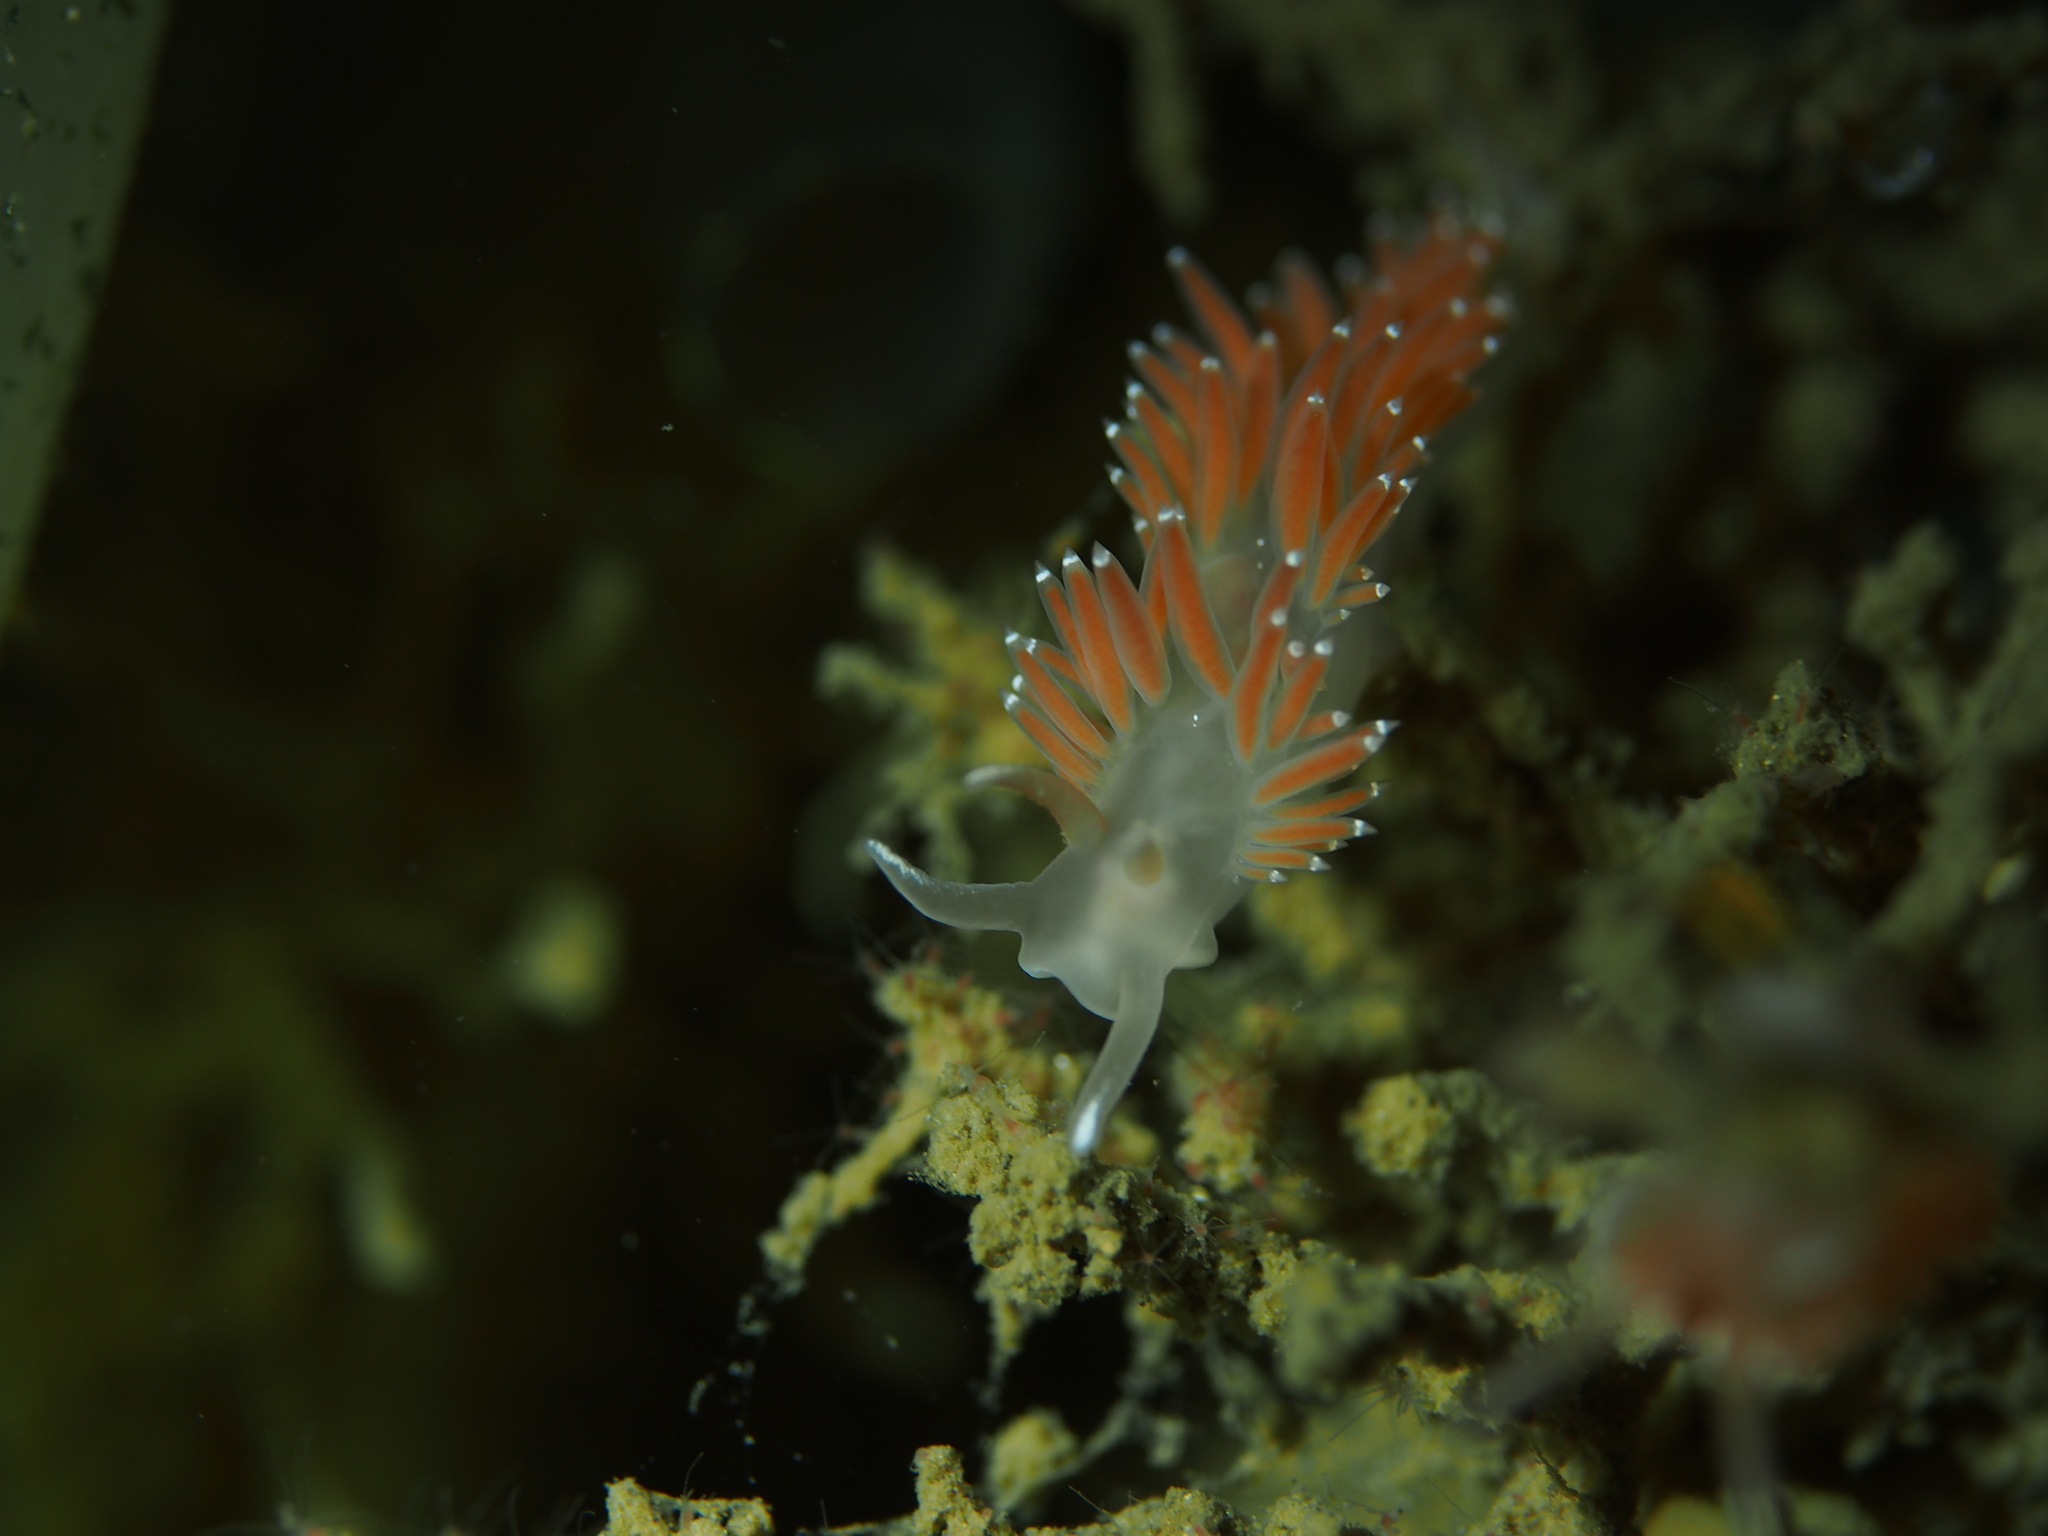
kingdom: Animalia
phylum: Mollusca
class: Gastropoda
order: Nudibranchia
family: Coryphellidae
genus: Coryphella
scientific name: Coryphella verrucosa
